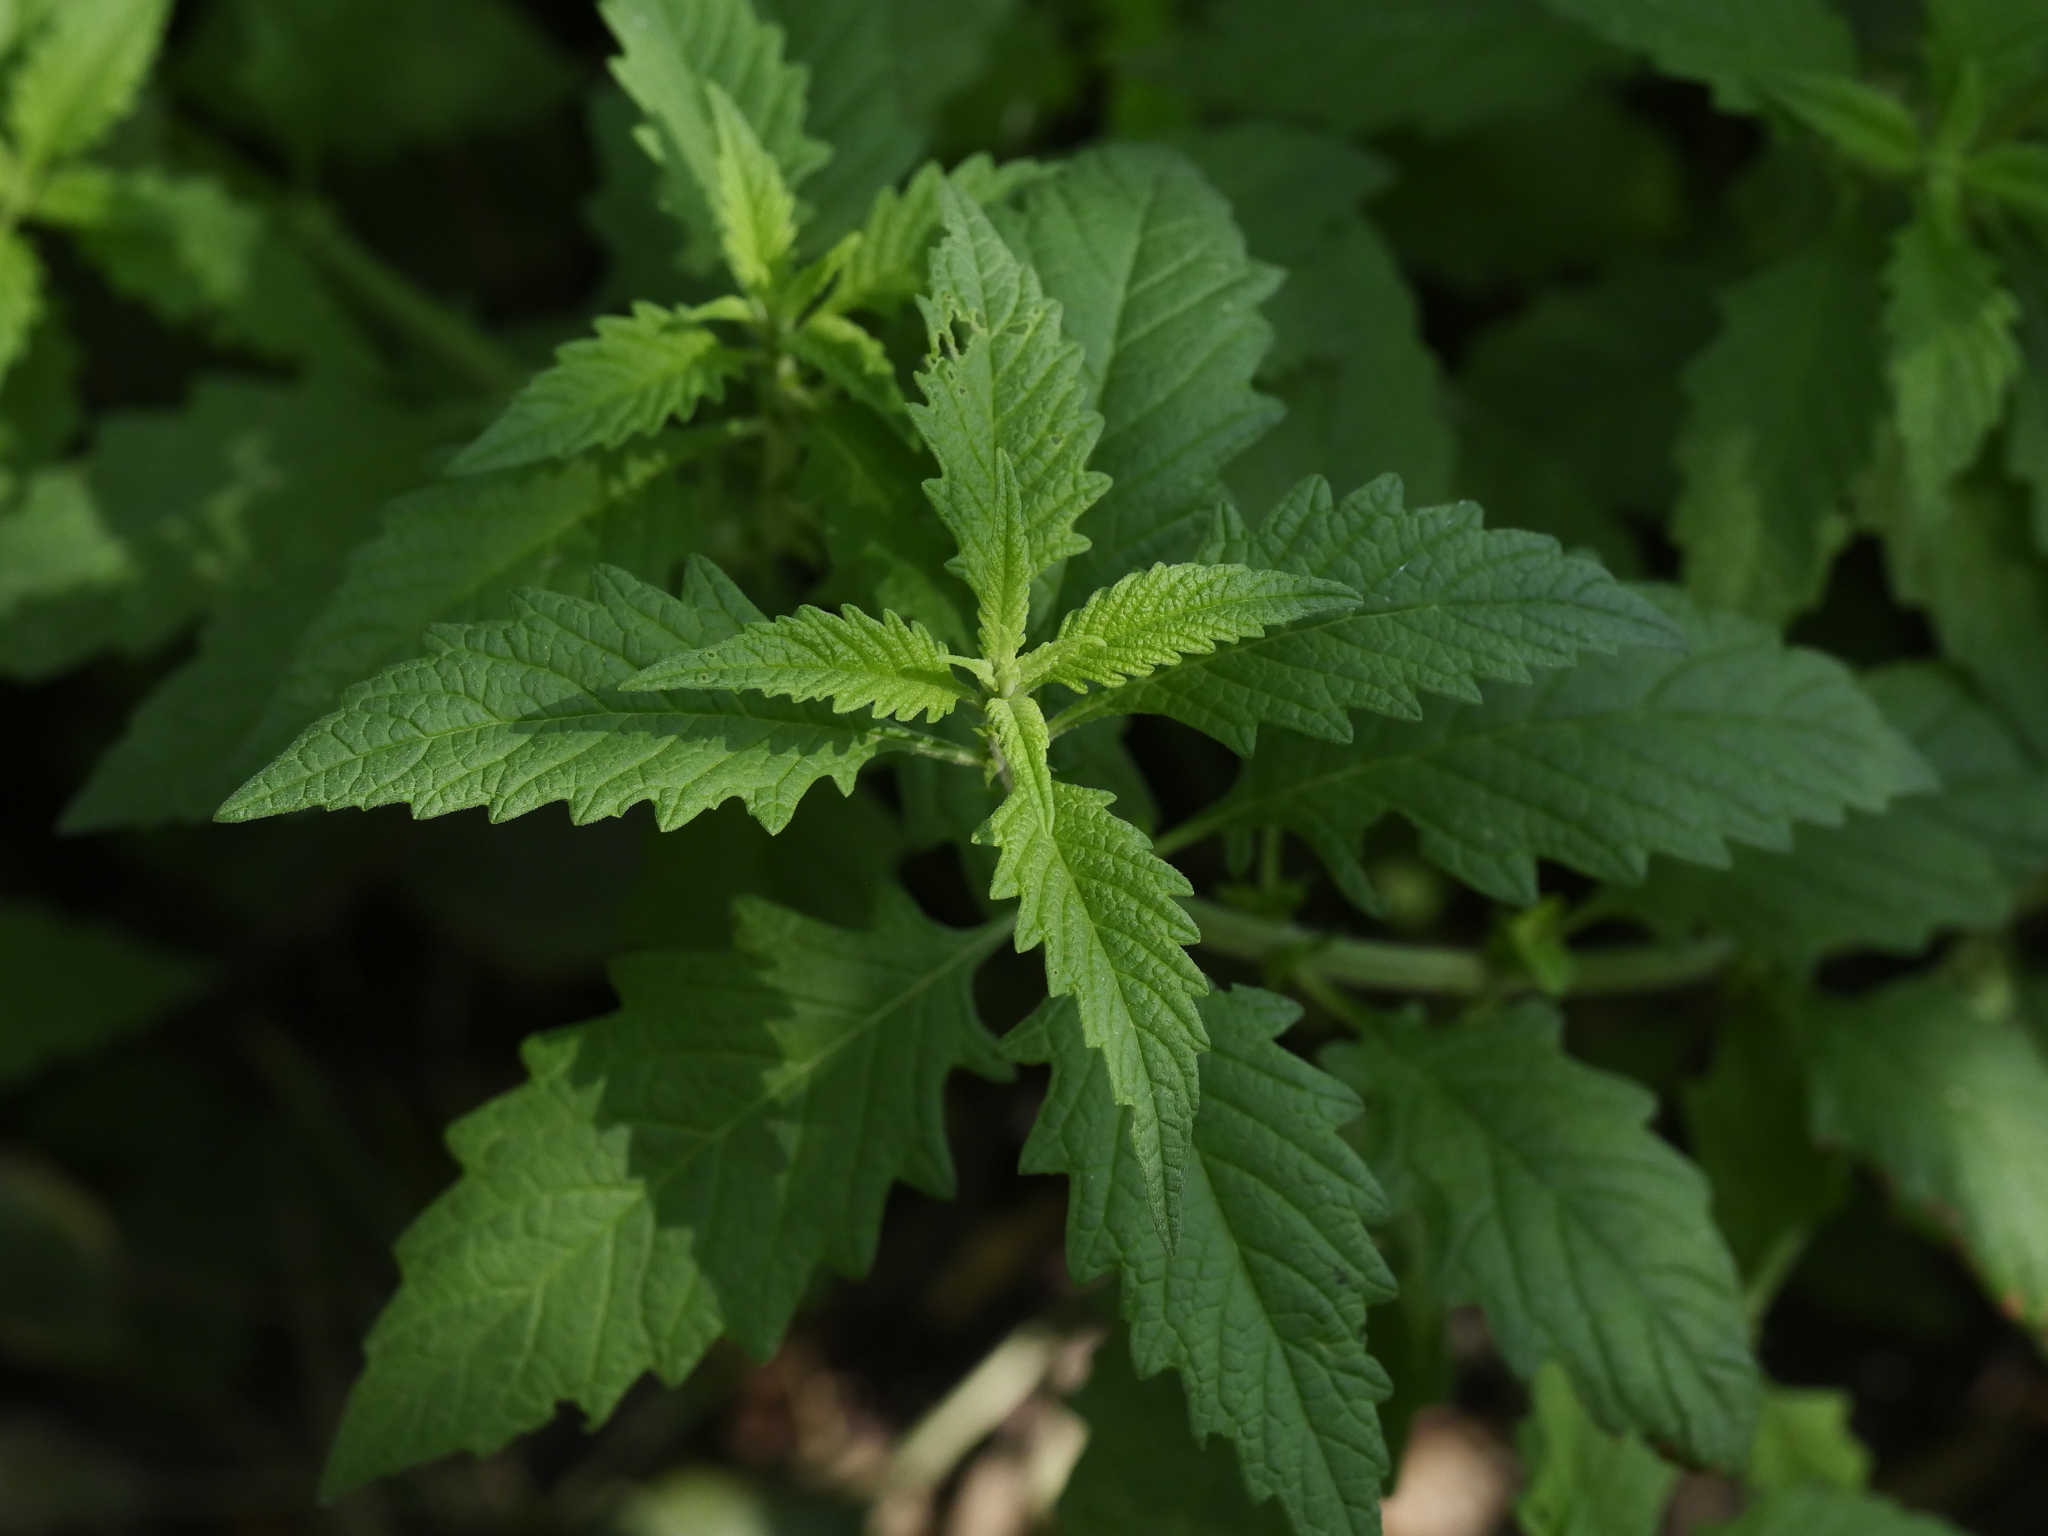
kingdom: Plantae
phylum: Tracheophyta
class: Magnoliopsida
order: Lamiales
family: Lamiaceae
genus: Lycopus
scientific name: Lycopus europaeus
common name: European bugleweed
